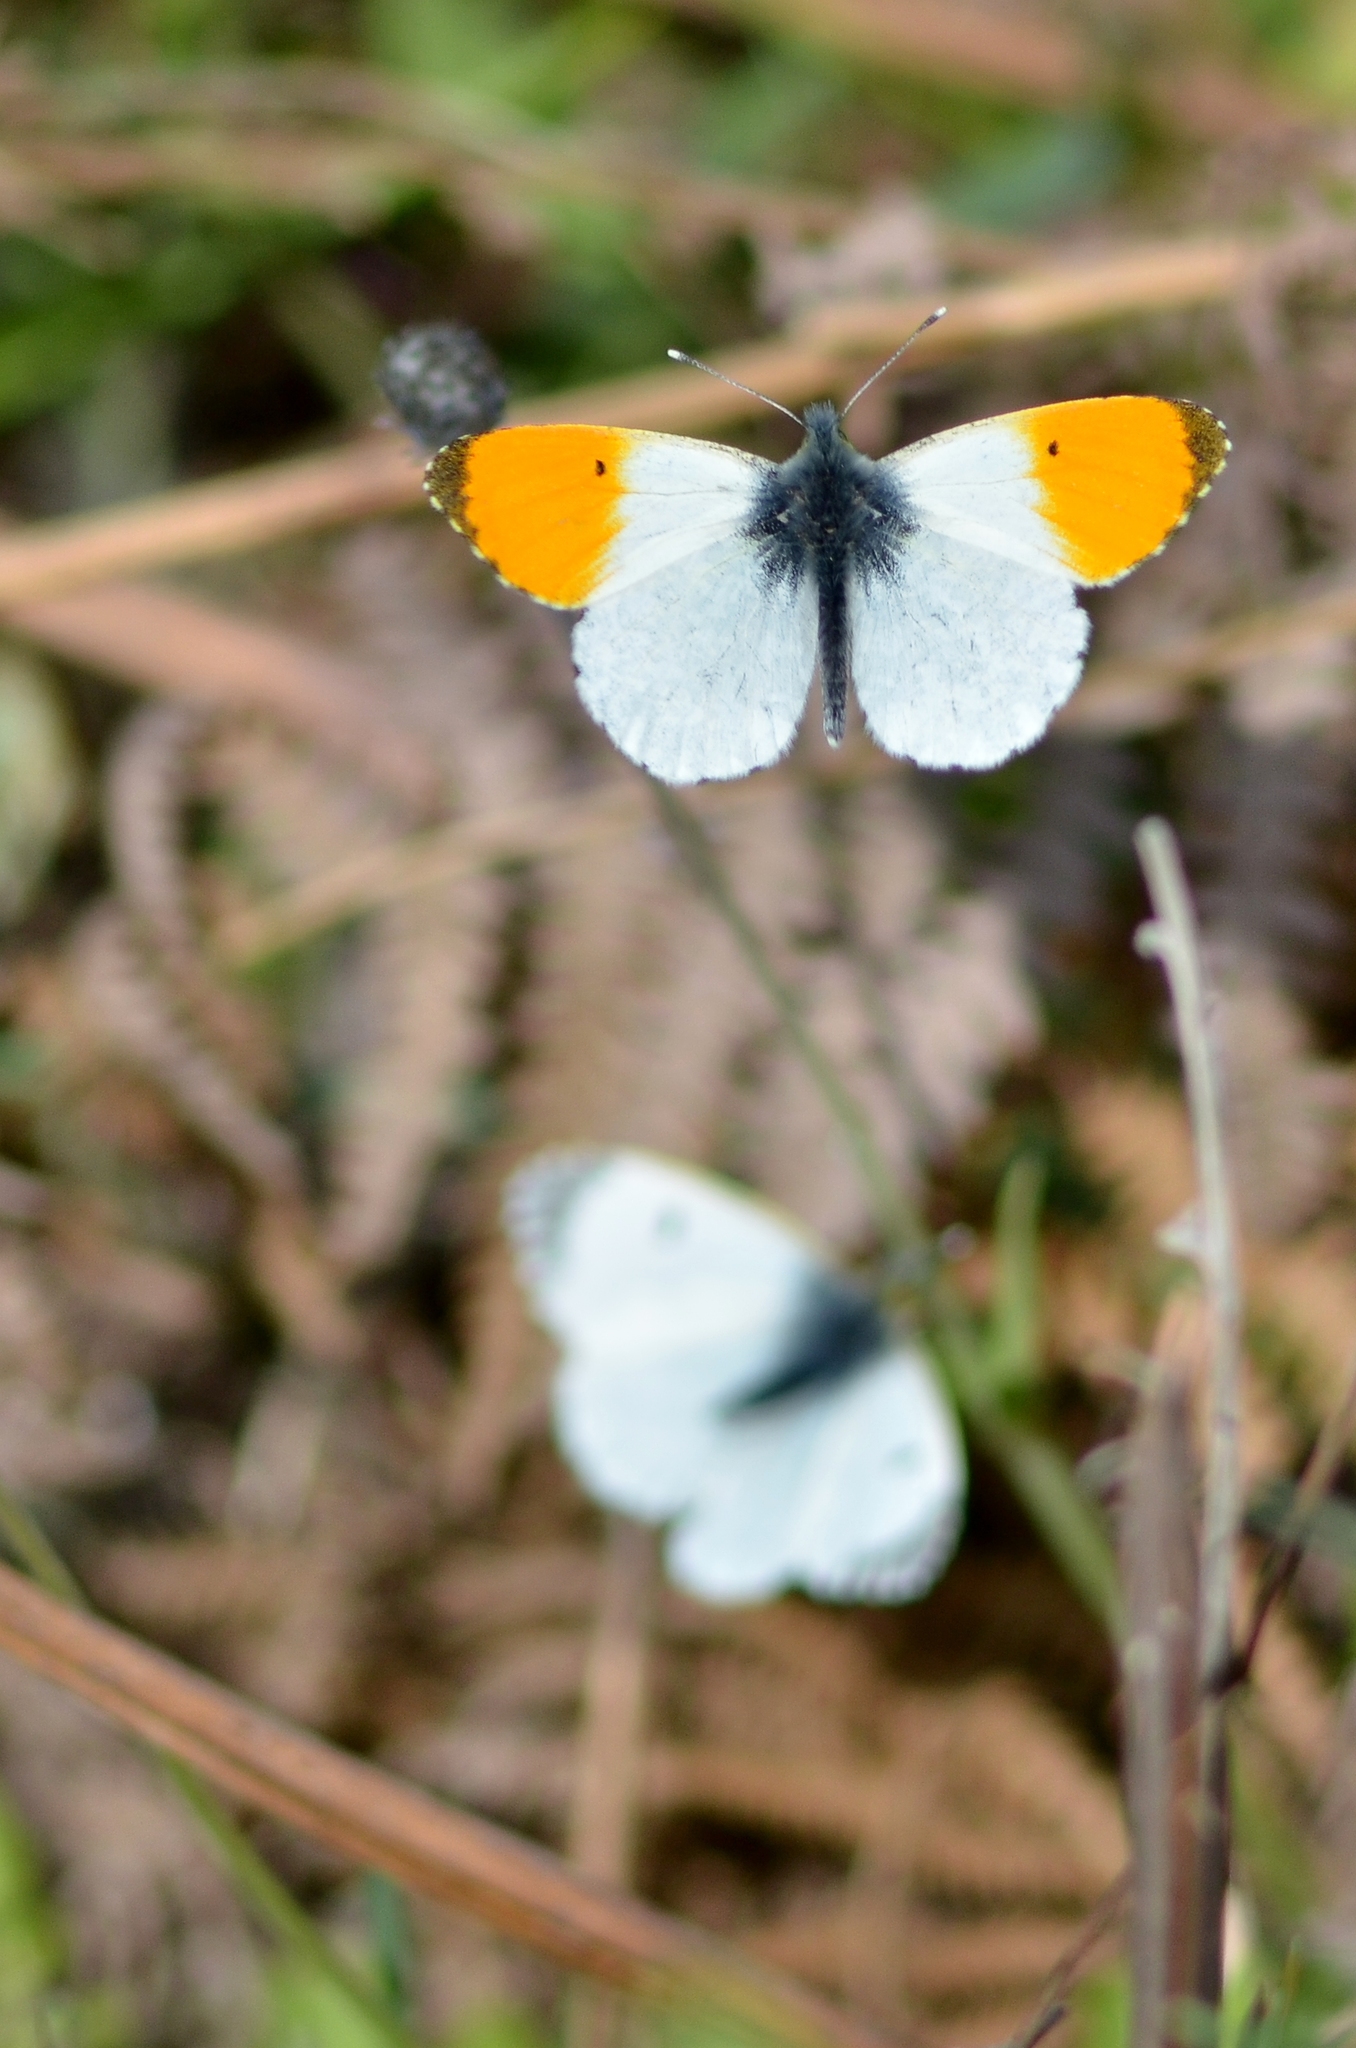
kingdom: Animalia
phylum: Arthropoda
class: Insecta
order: Lepidoptera
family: Pieridae
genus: Anthocharis
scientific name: Anthocharis cardamines
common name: Orange-tip
